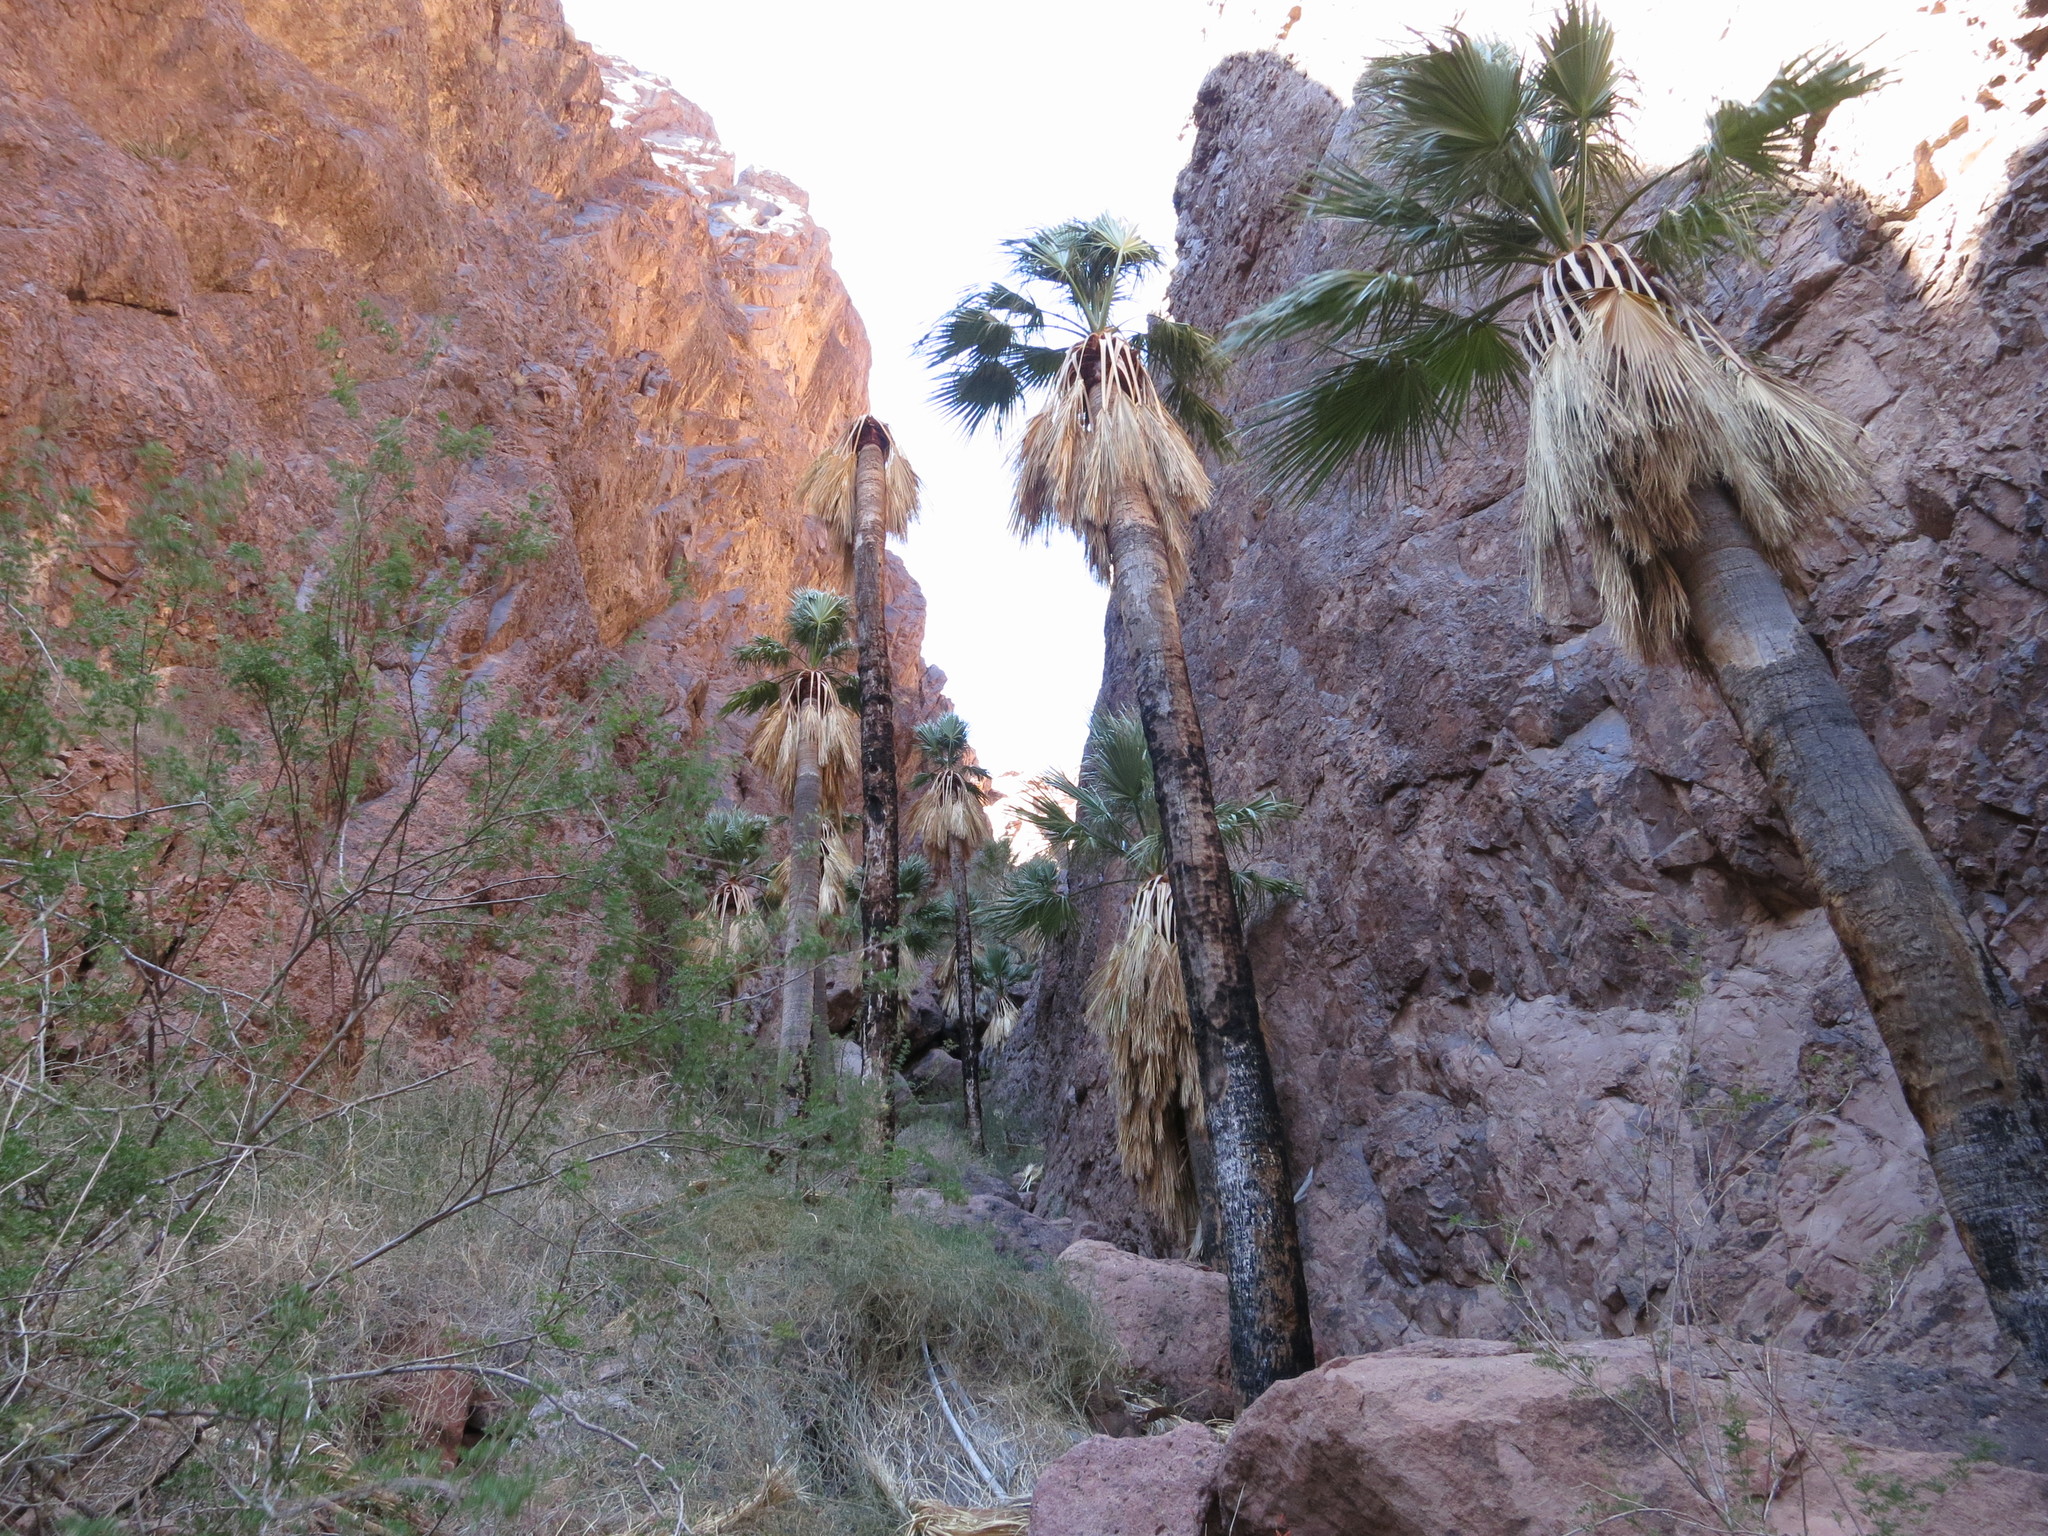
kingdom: Plantae
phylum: Tracheophyta
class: Liliopsida
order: Arecales
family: Arecaceae
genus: Washingtonia
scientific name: Washingtonia filifera
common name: California fan palm
